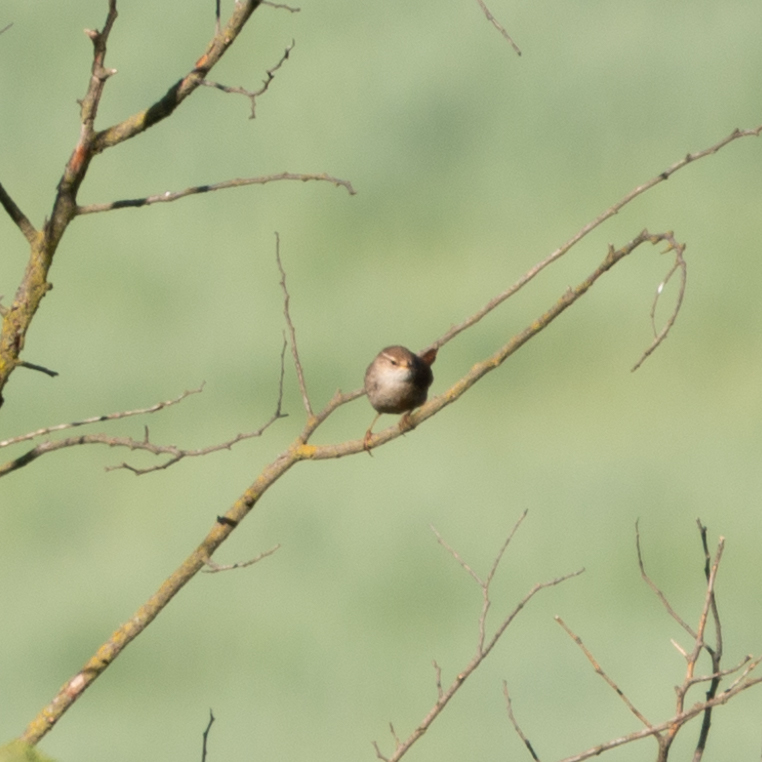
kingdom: Animalia
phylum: Chordata
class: Aves
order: Passeriformes
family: Troglodytidae
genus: Troglodytes
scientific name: Troglodytes troglodytes
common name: Eurasian wren
